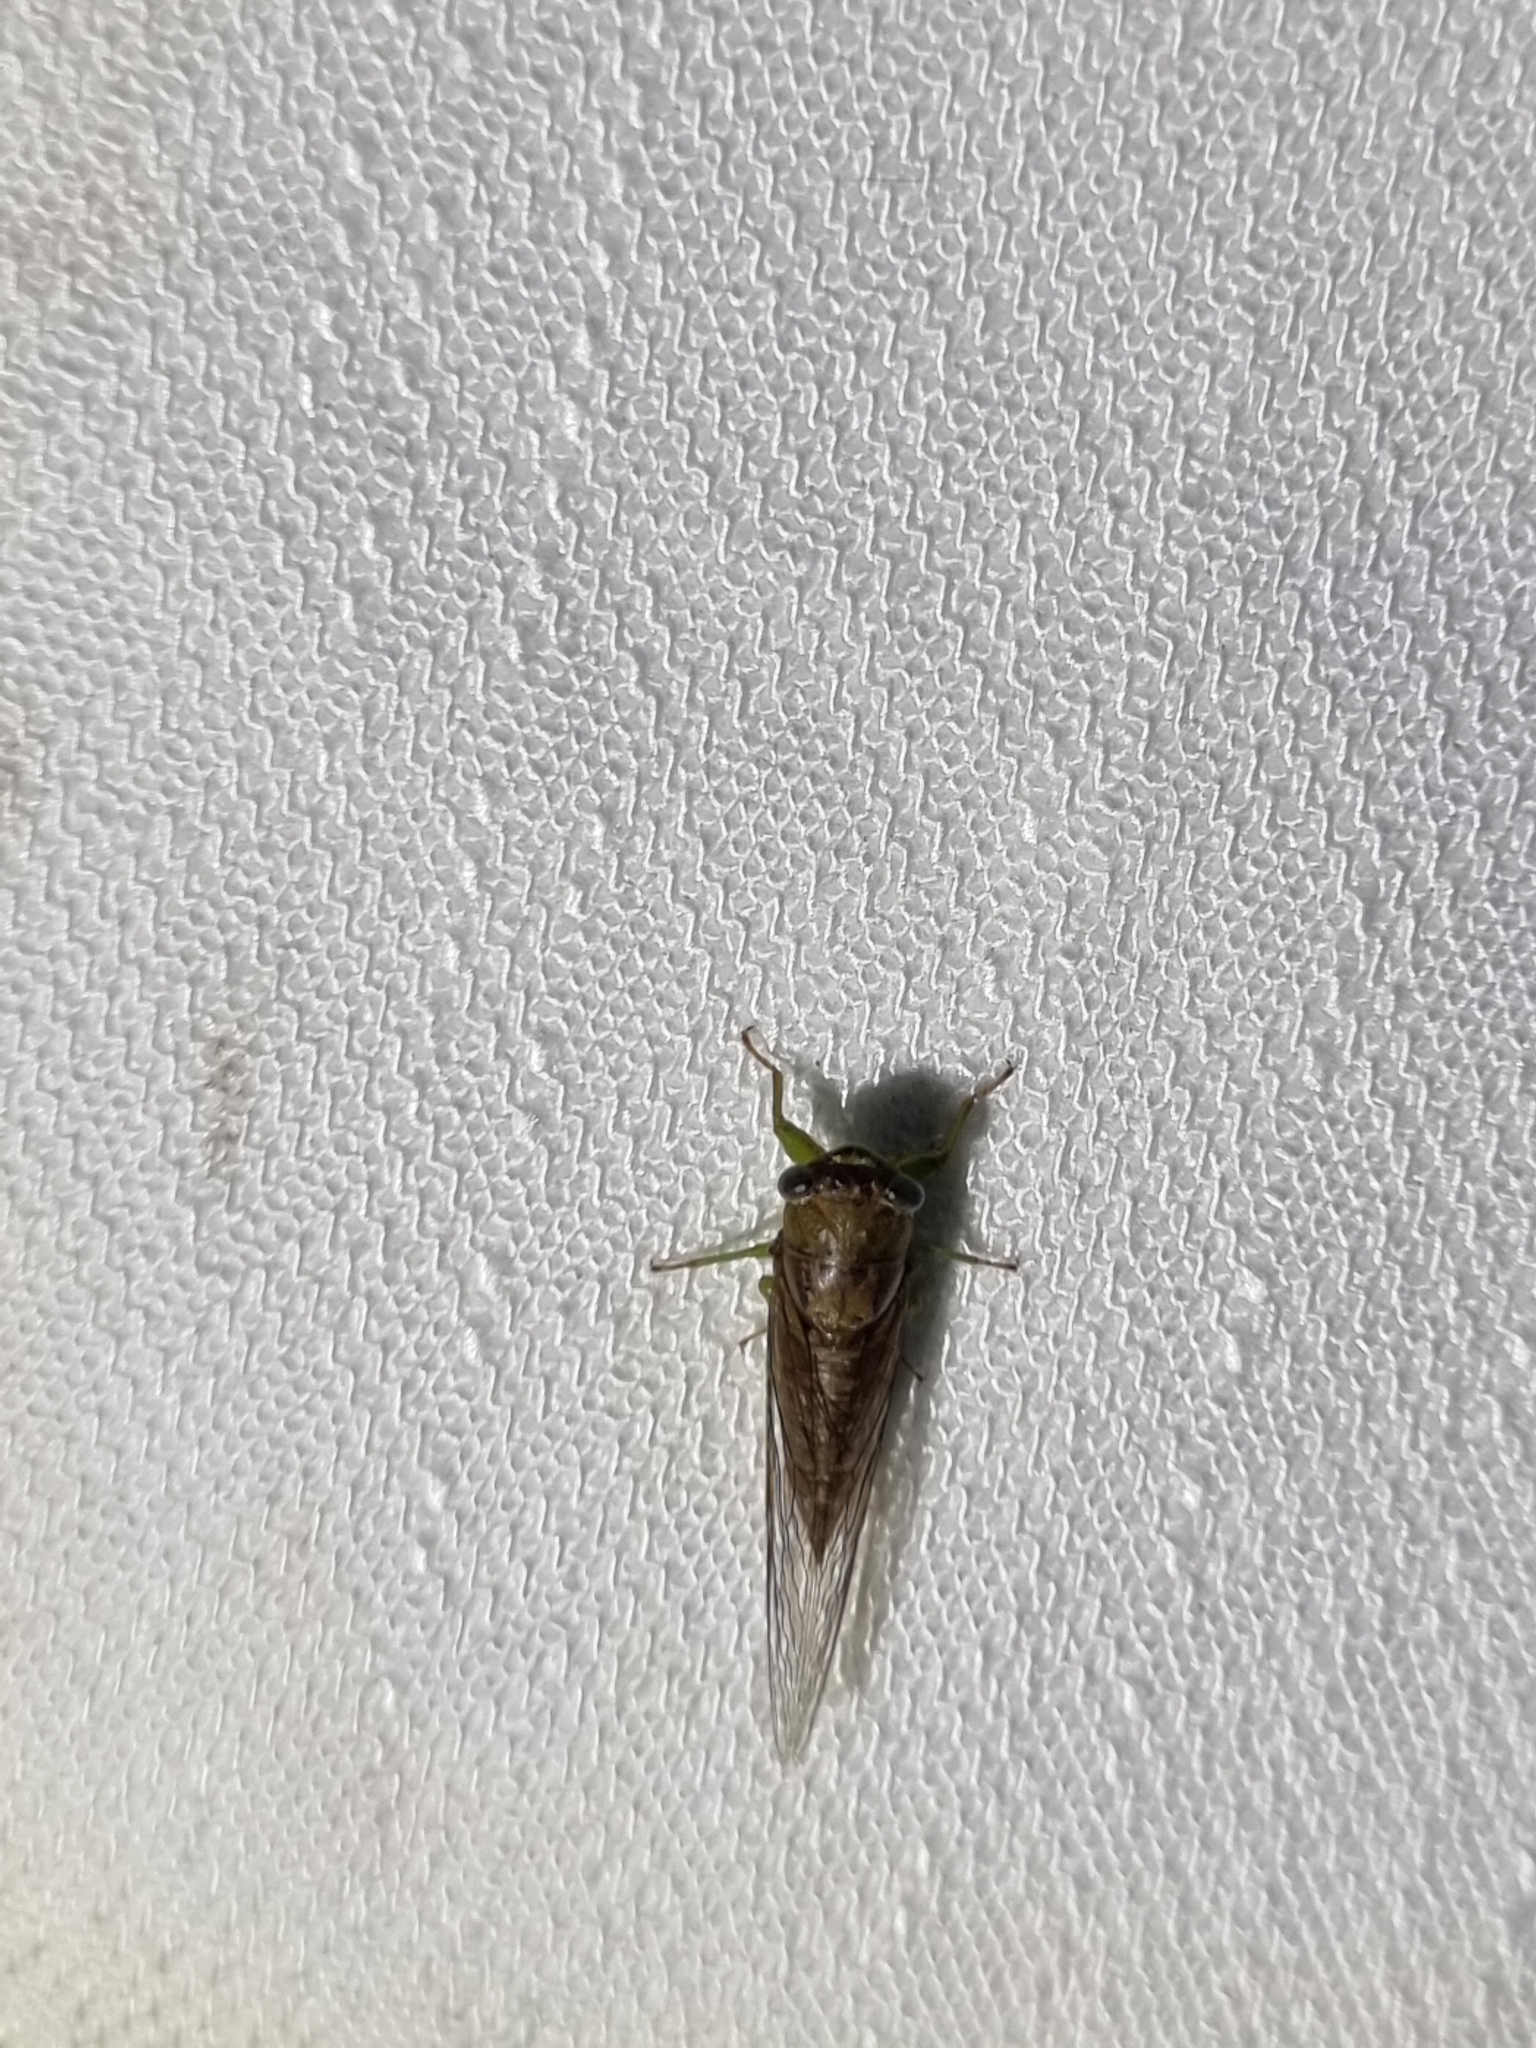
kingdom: Animalia
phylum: Arthropoda
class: Insecta
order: Hemiptera
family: Cicadidae
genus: Taurella
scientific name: Taurella forresti
